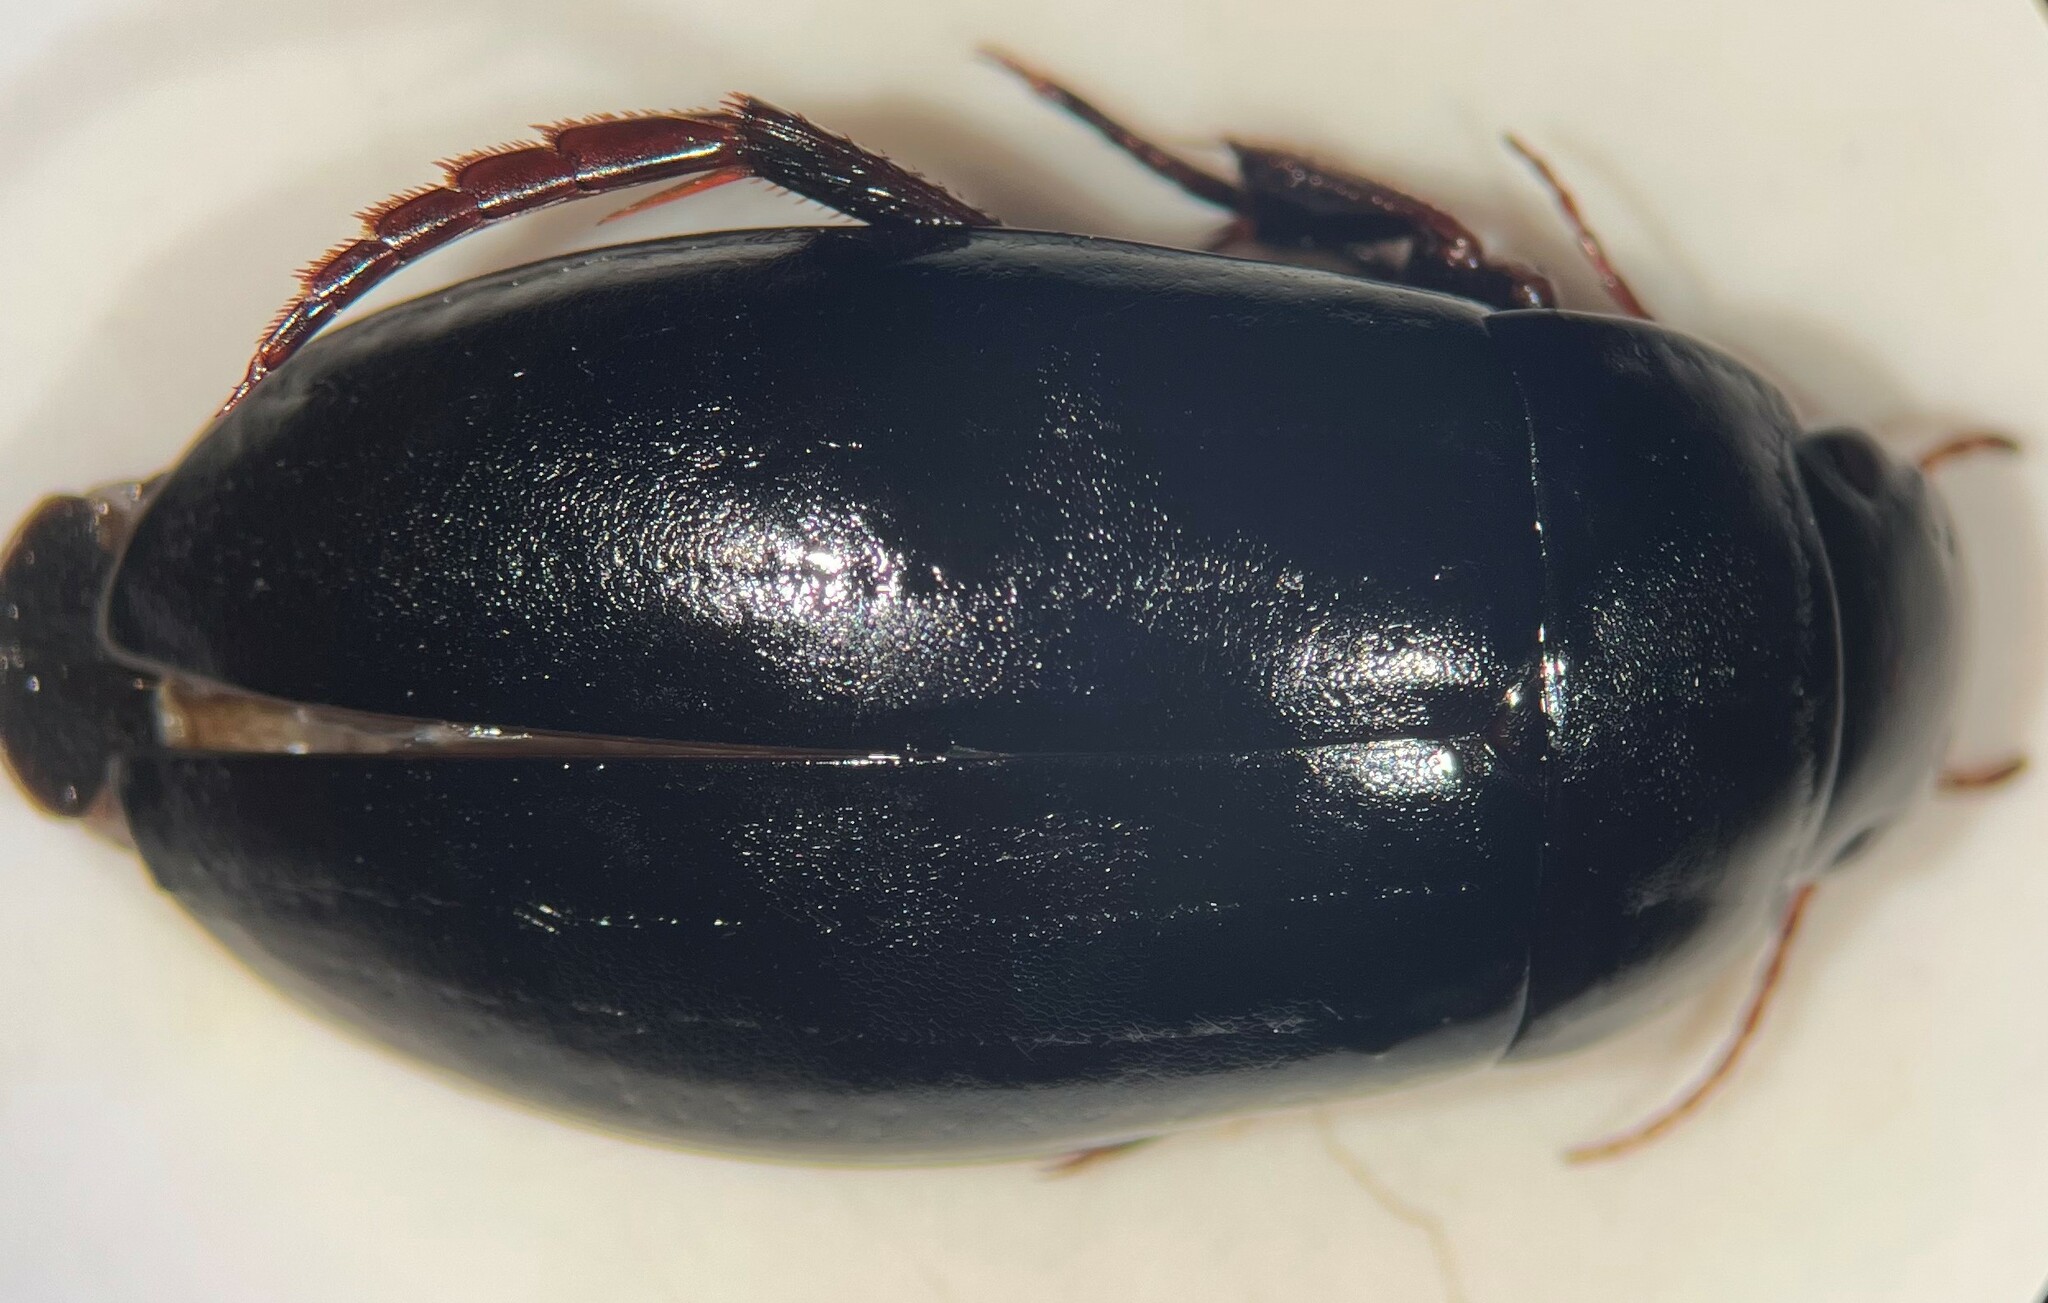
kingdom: Animalia
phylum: Arthropoda
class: Insecta
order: Coleoptera
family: Dytiscidae
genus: Neoscutopterus
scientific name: Neoscutopterus hornii
